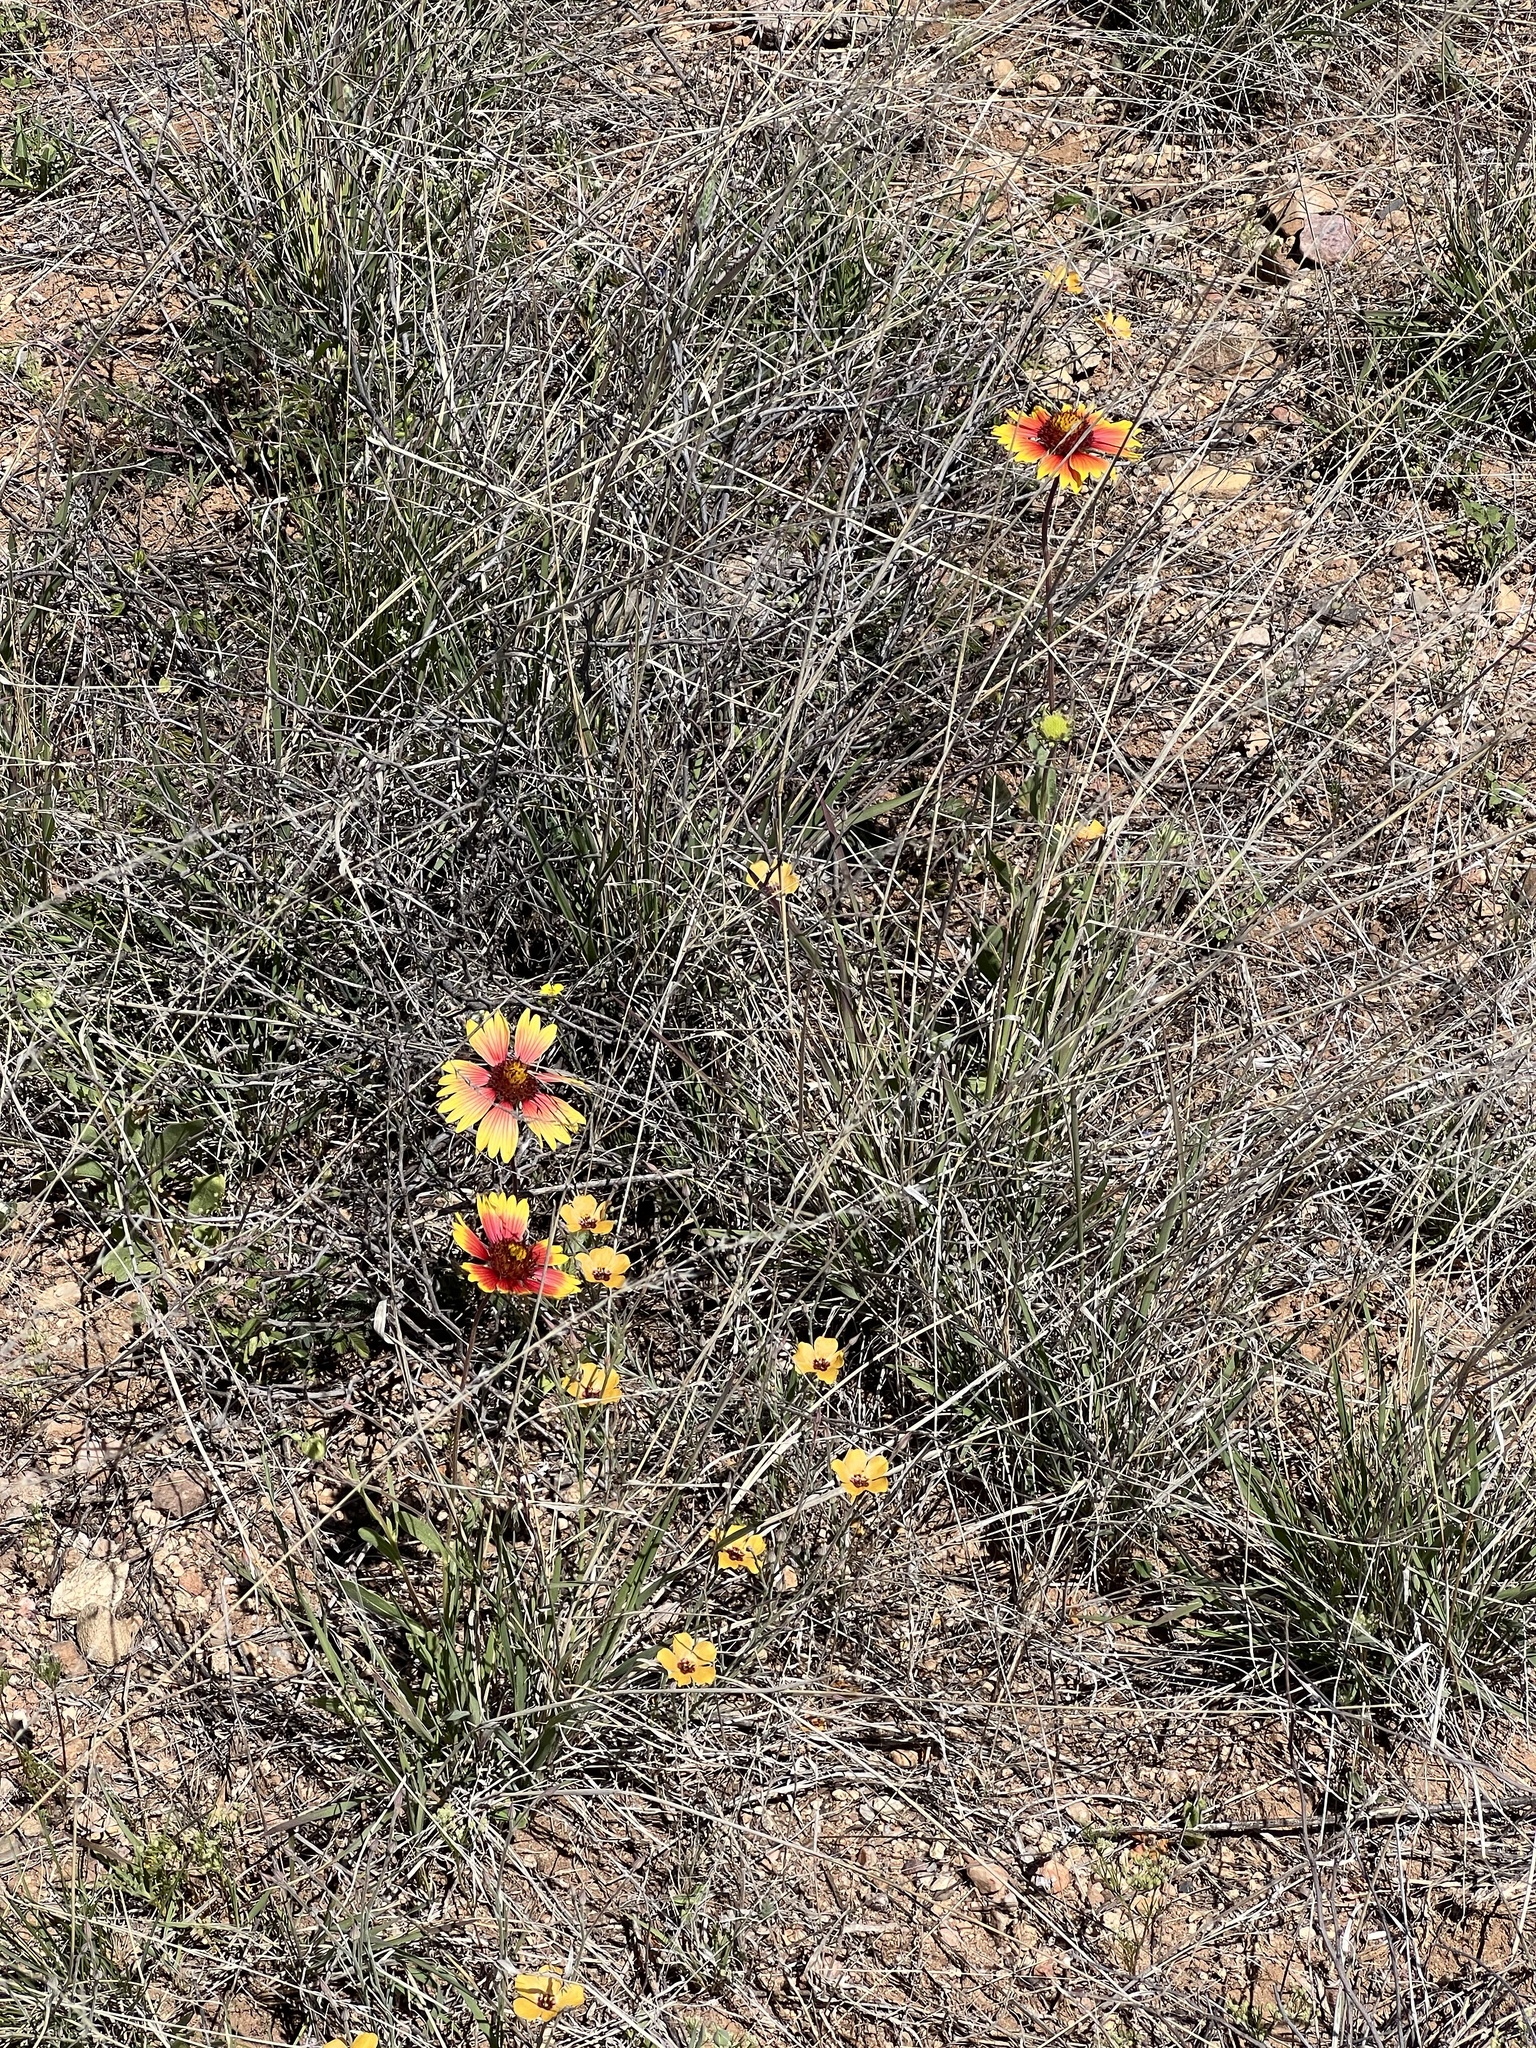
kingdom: Plantae
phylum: Tracheophyta
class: Magnoliopsida
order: Asterales
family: Asteraceae
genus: Gaillardia
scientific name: Gaillardia pinnatifida
